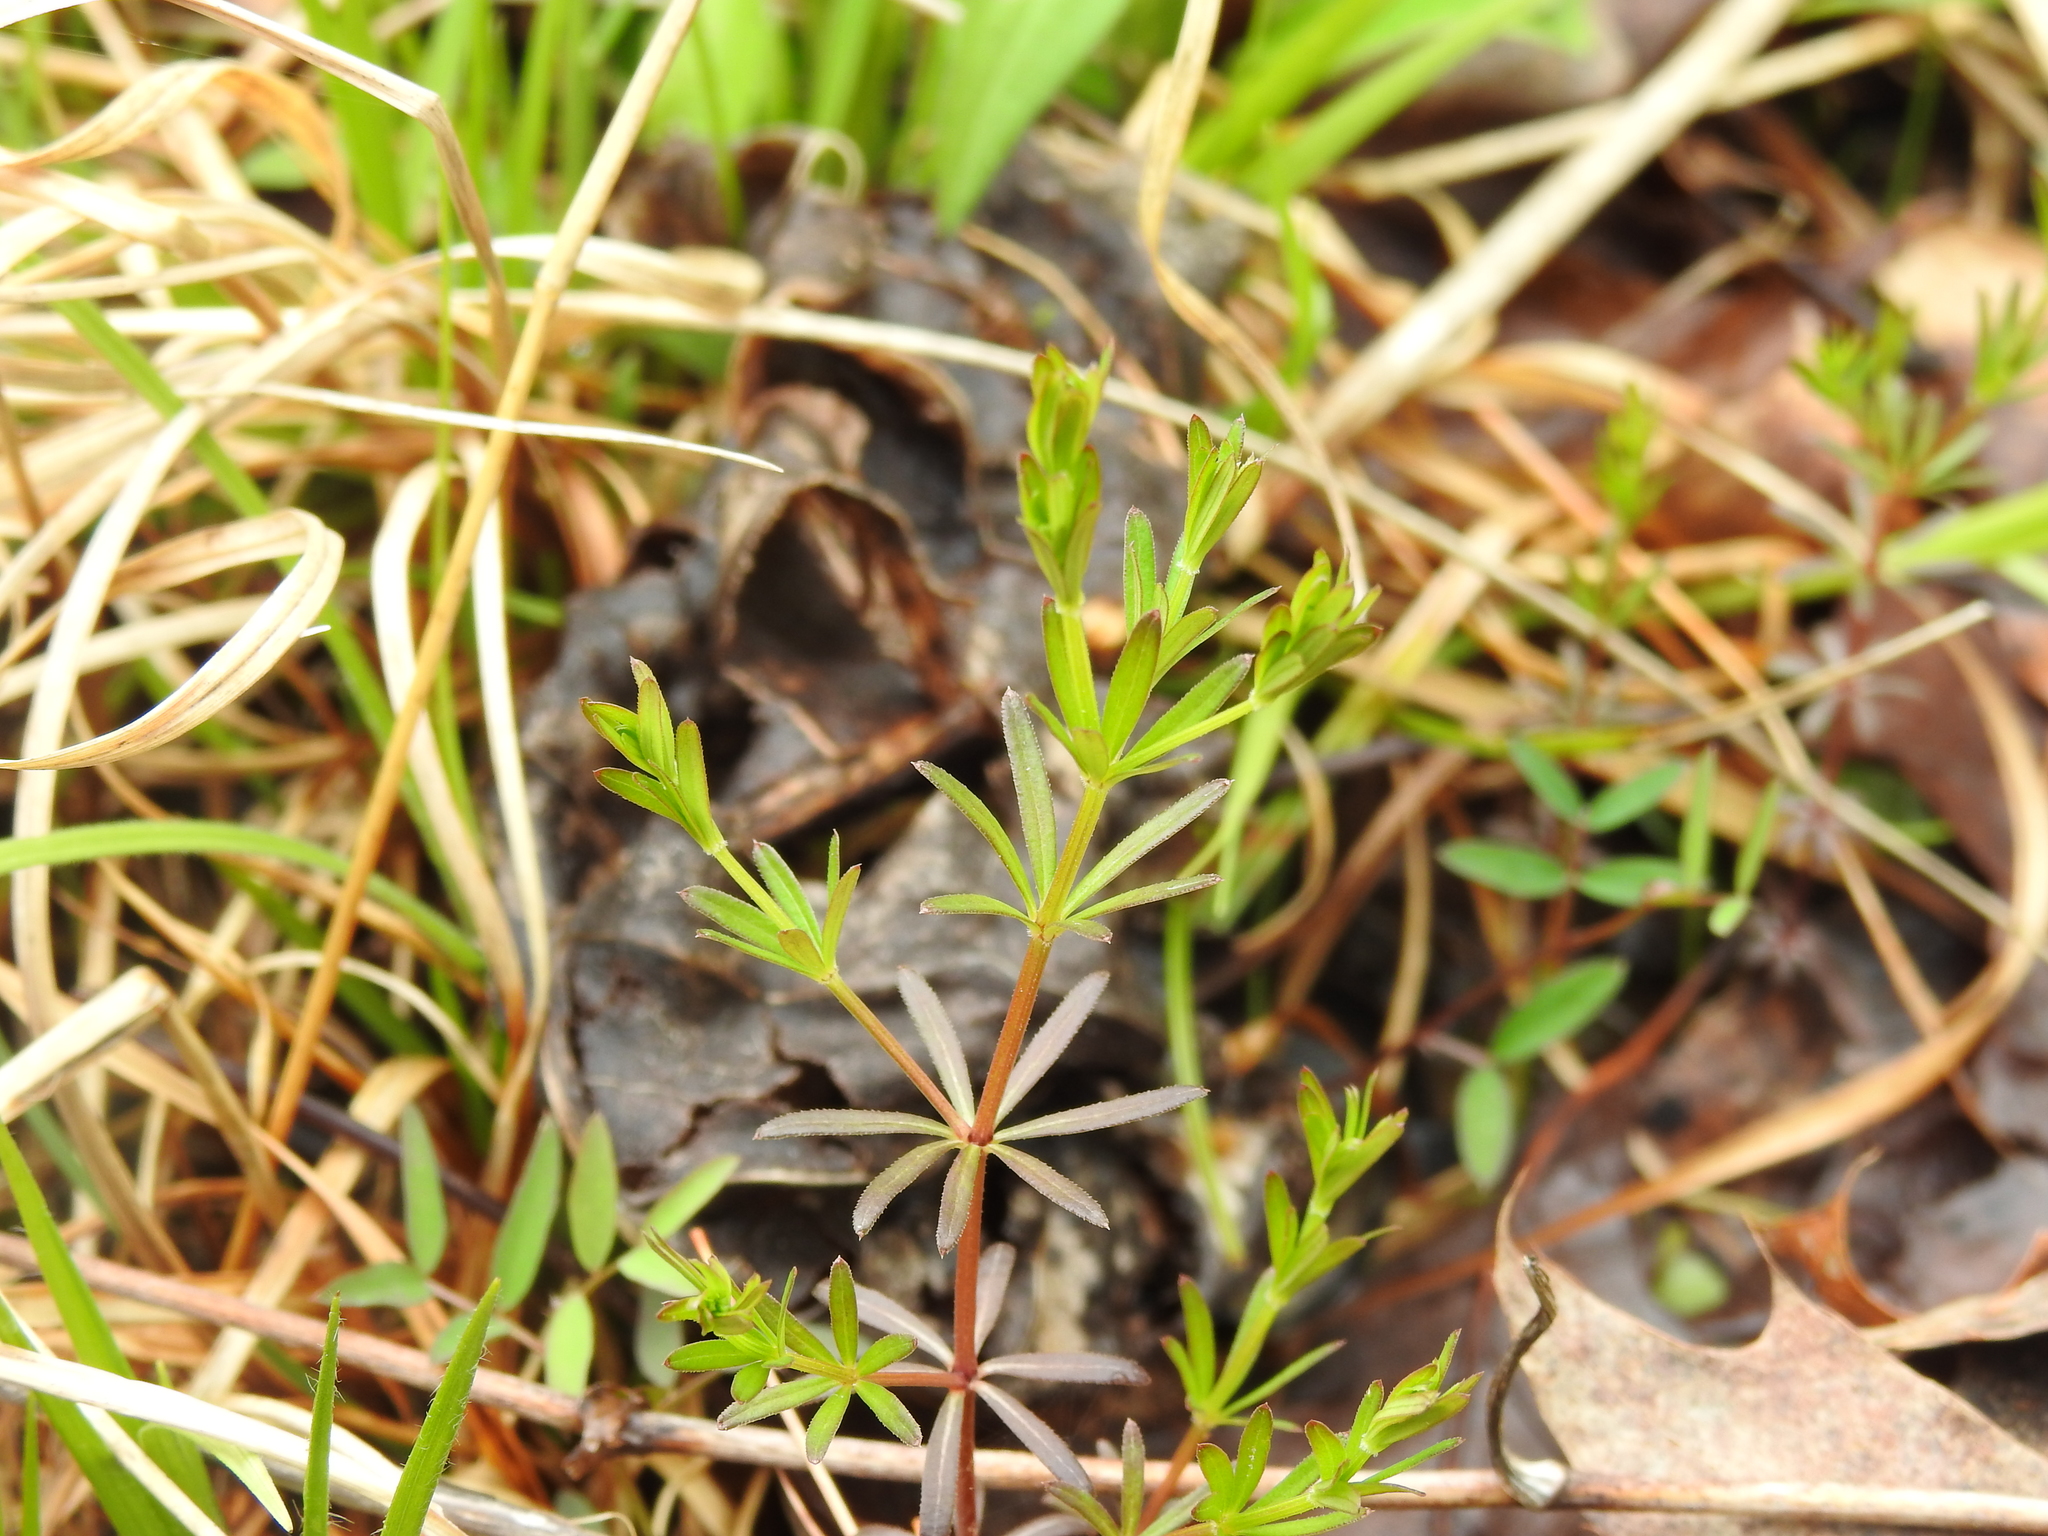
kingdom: Plantae
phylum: Tracheophyta
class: Magnoliopsida
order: Gentianales
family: Rubiaceae
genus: Galium
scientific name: Galium concinnum
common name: Shining bedstraw
